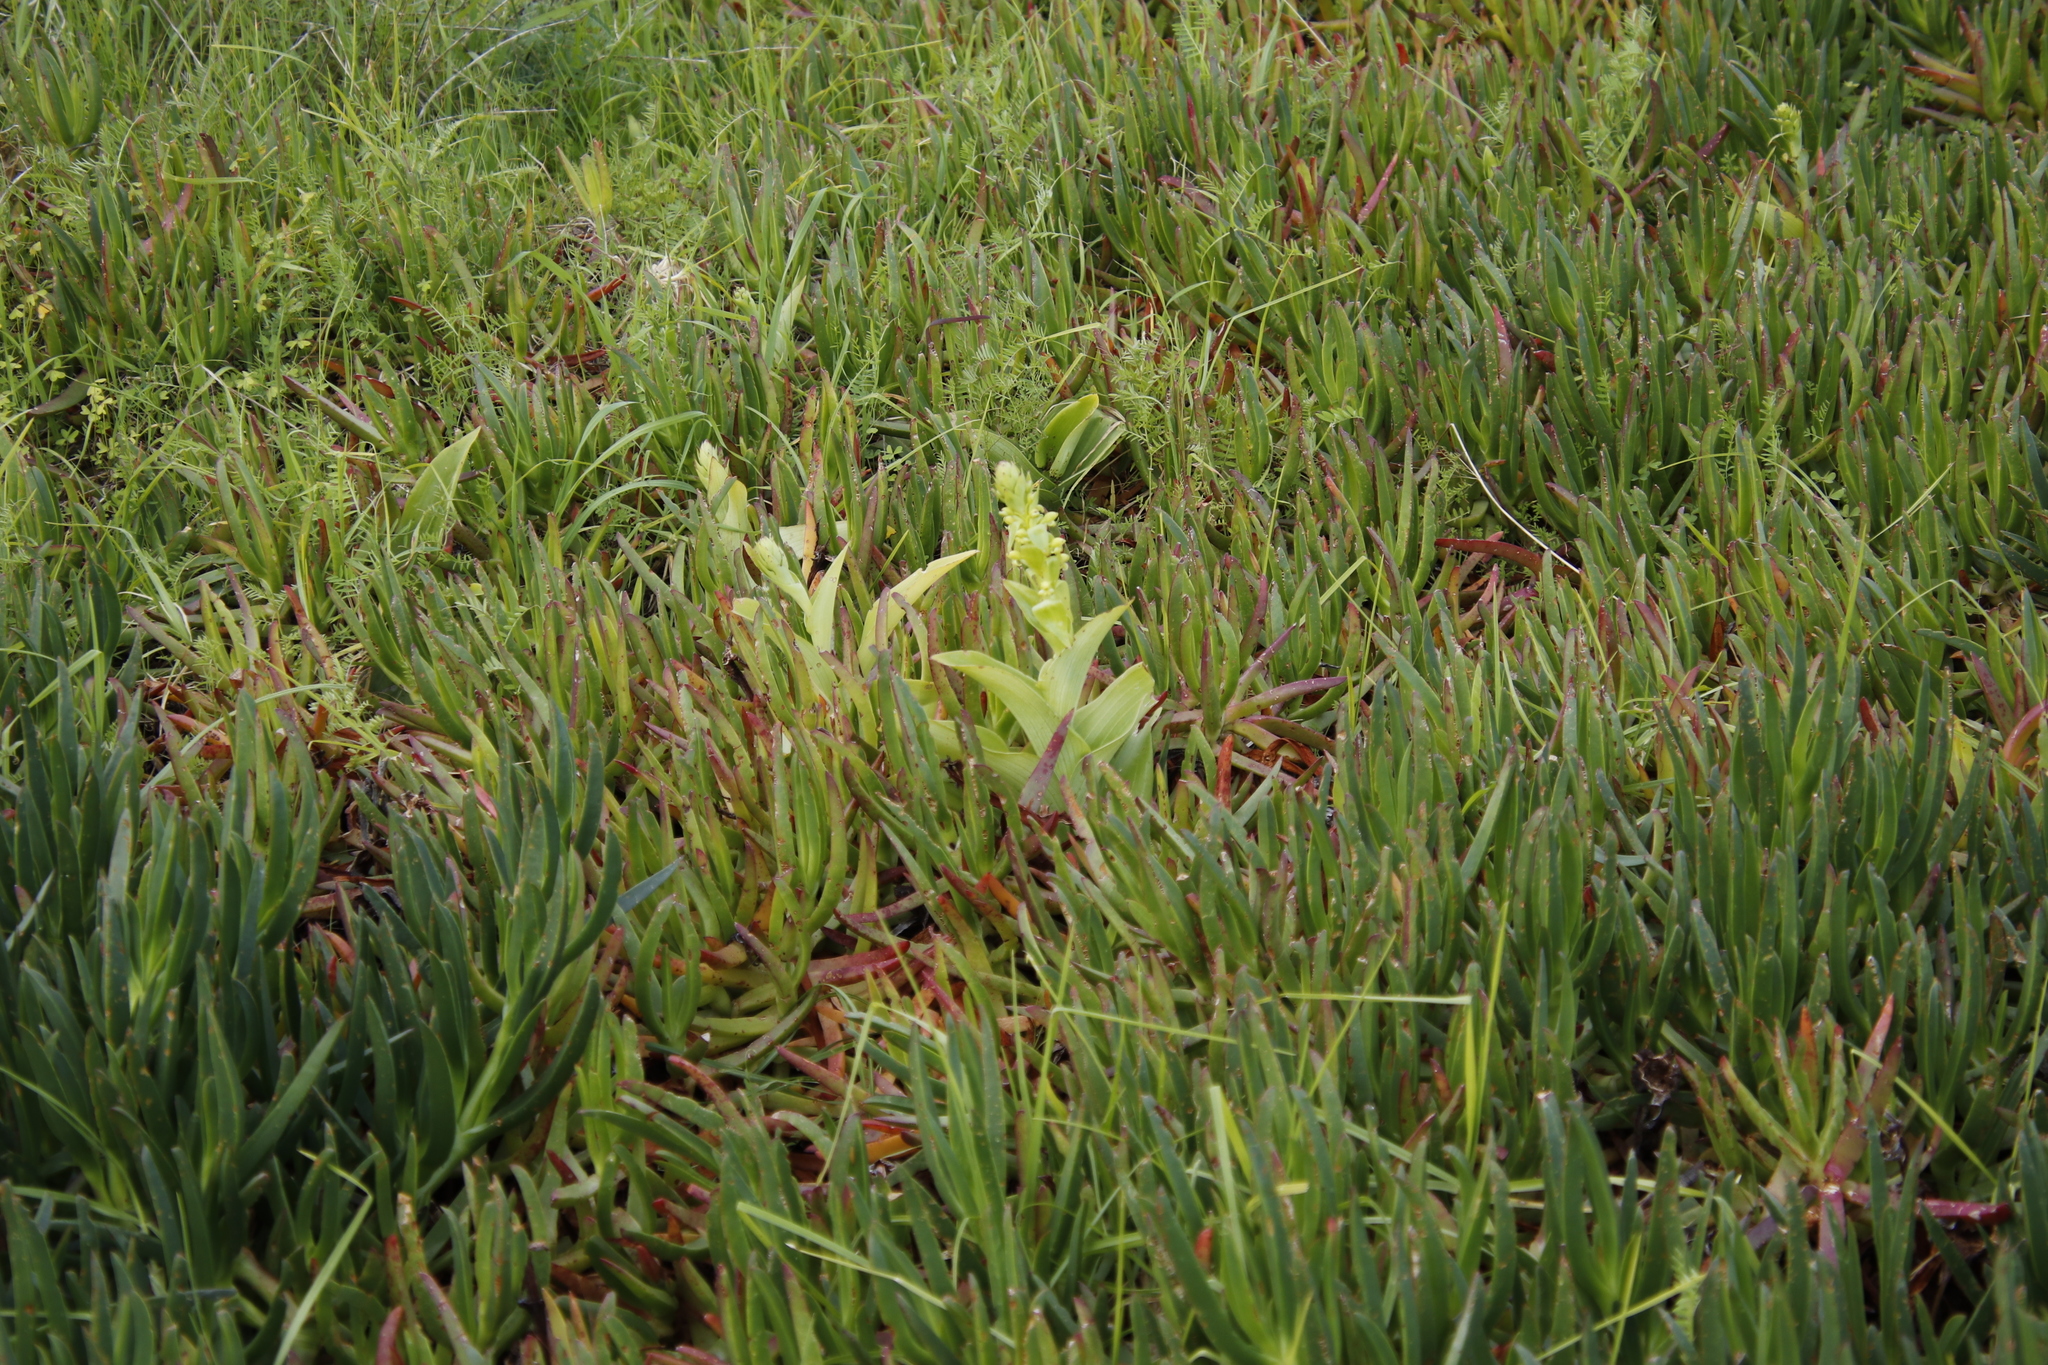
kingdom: Plantae
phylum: Tracheophyta
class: Liliopsida
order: Asparagales
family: Orchidaceae
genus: Satyrium
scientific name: Satyrium odorum
